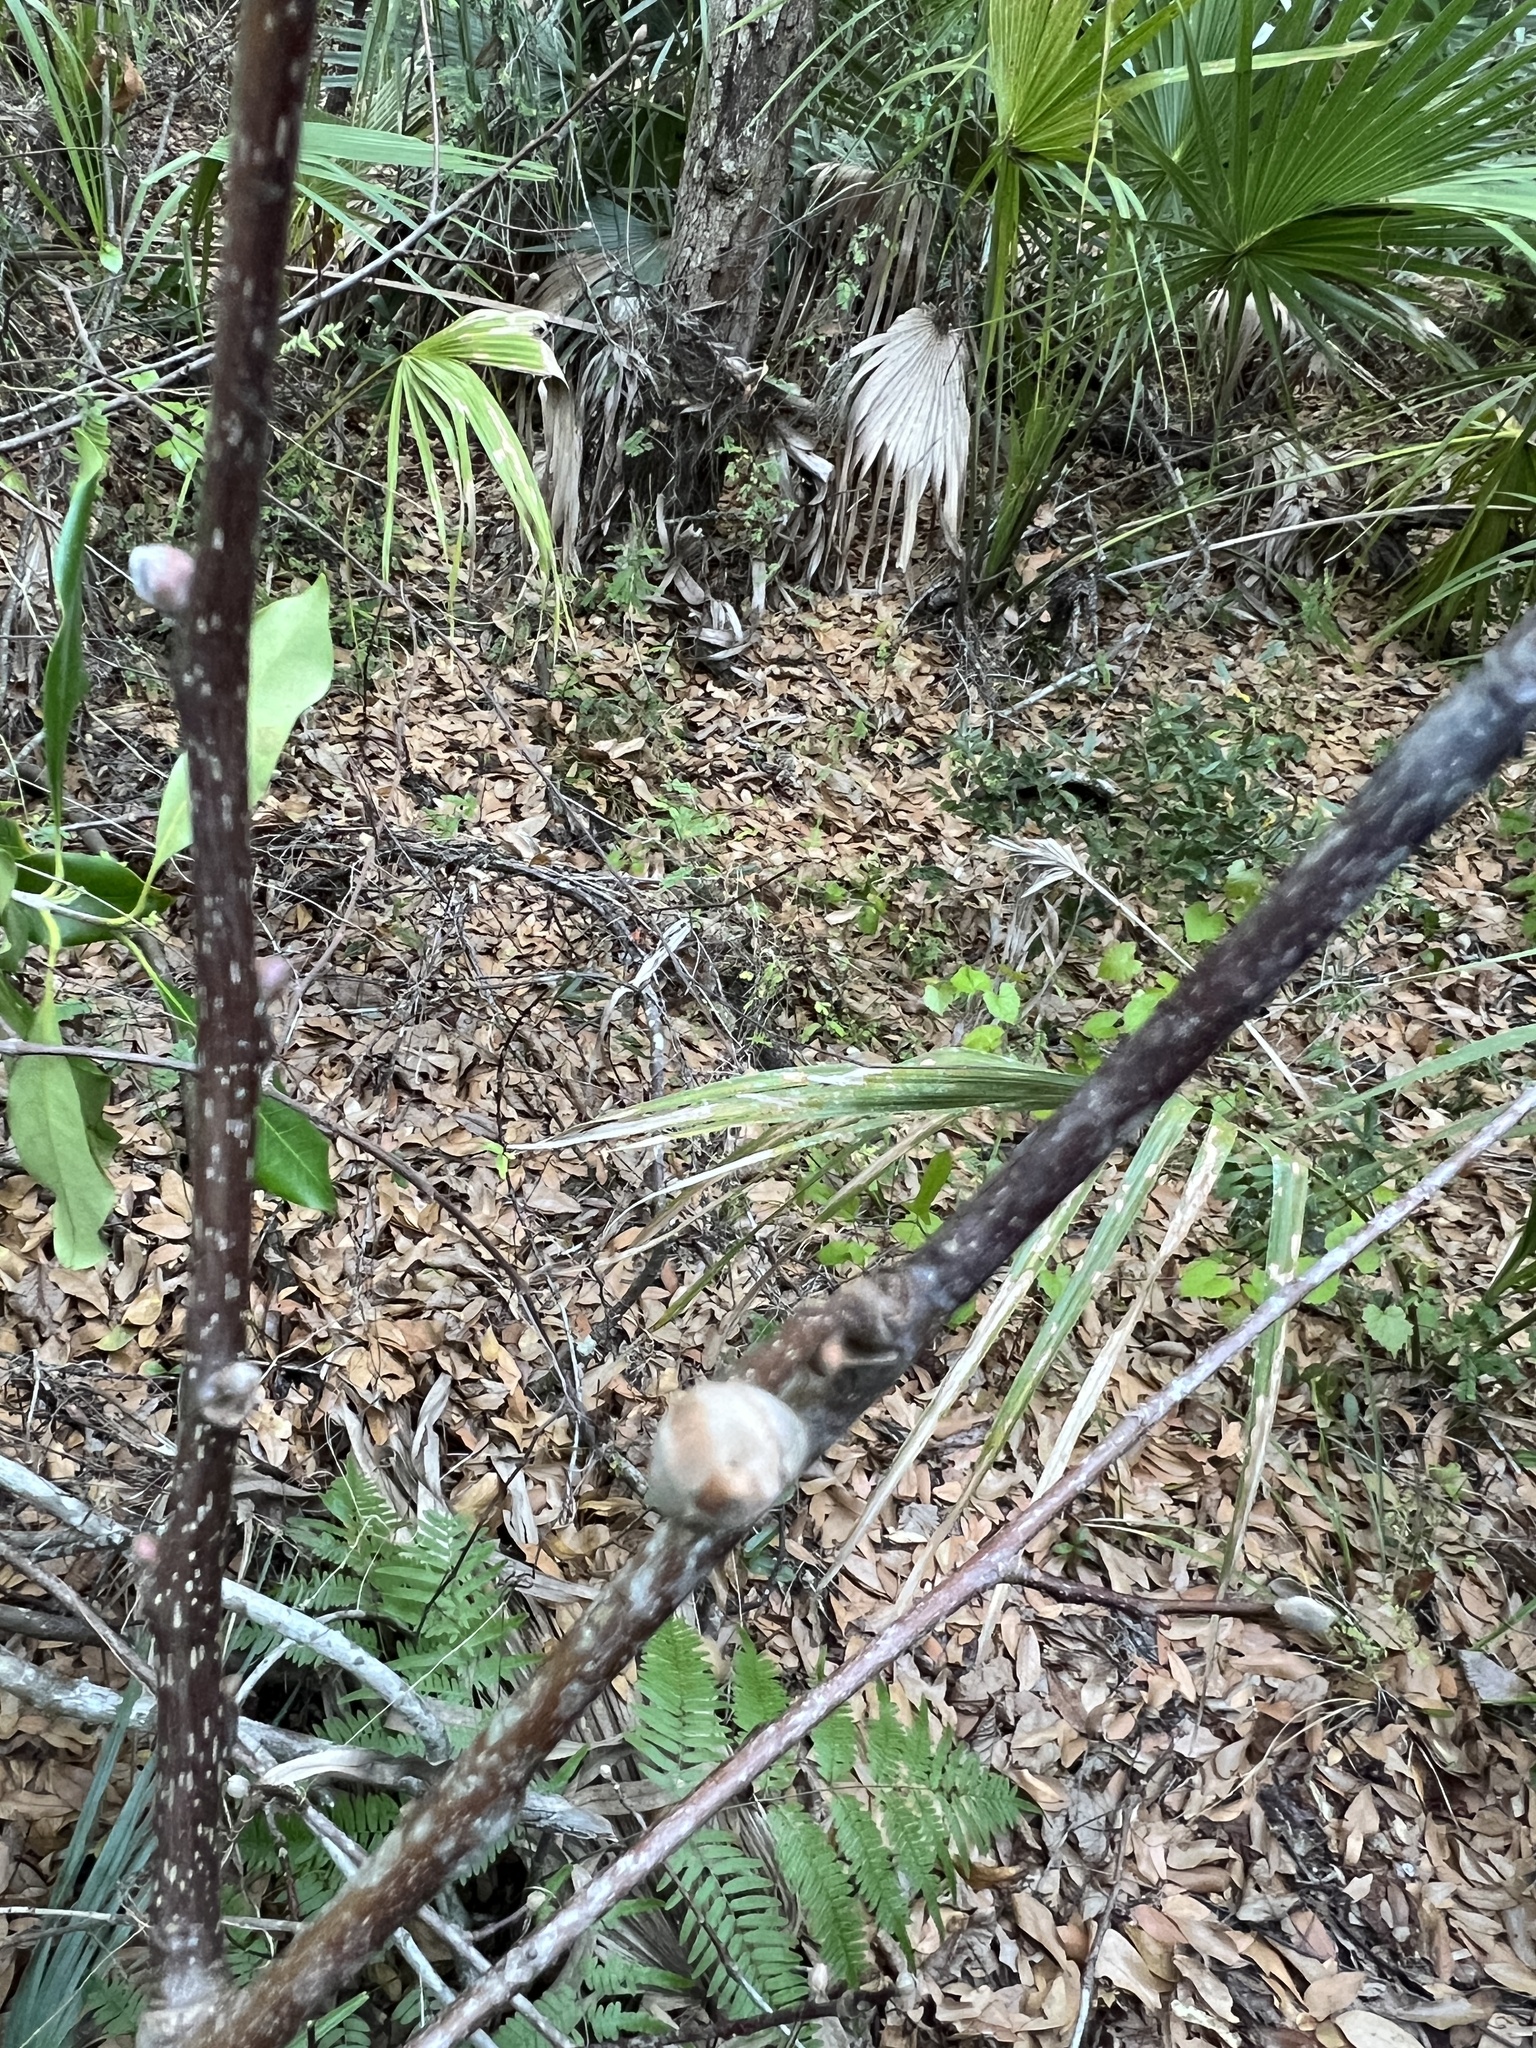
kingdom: Plantae
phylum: Tracheophyta
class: Magnoliopsida
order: Fagales
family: Juglandaceae
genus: Carya
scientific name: Carya glabra
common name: Pignut hickory
